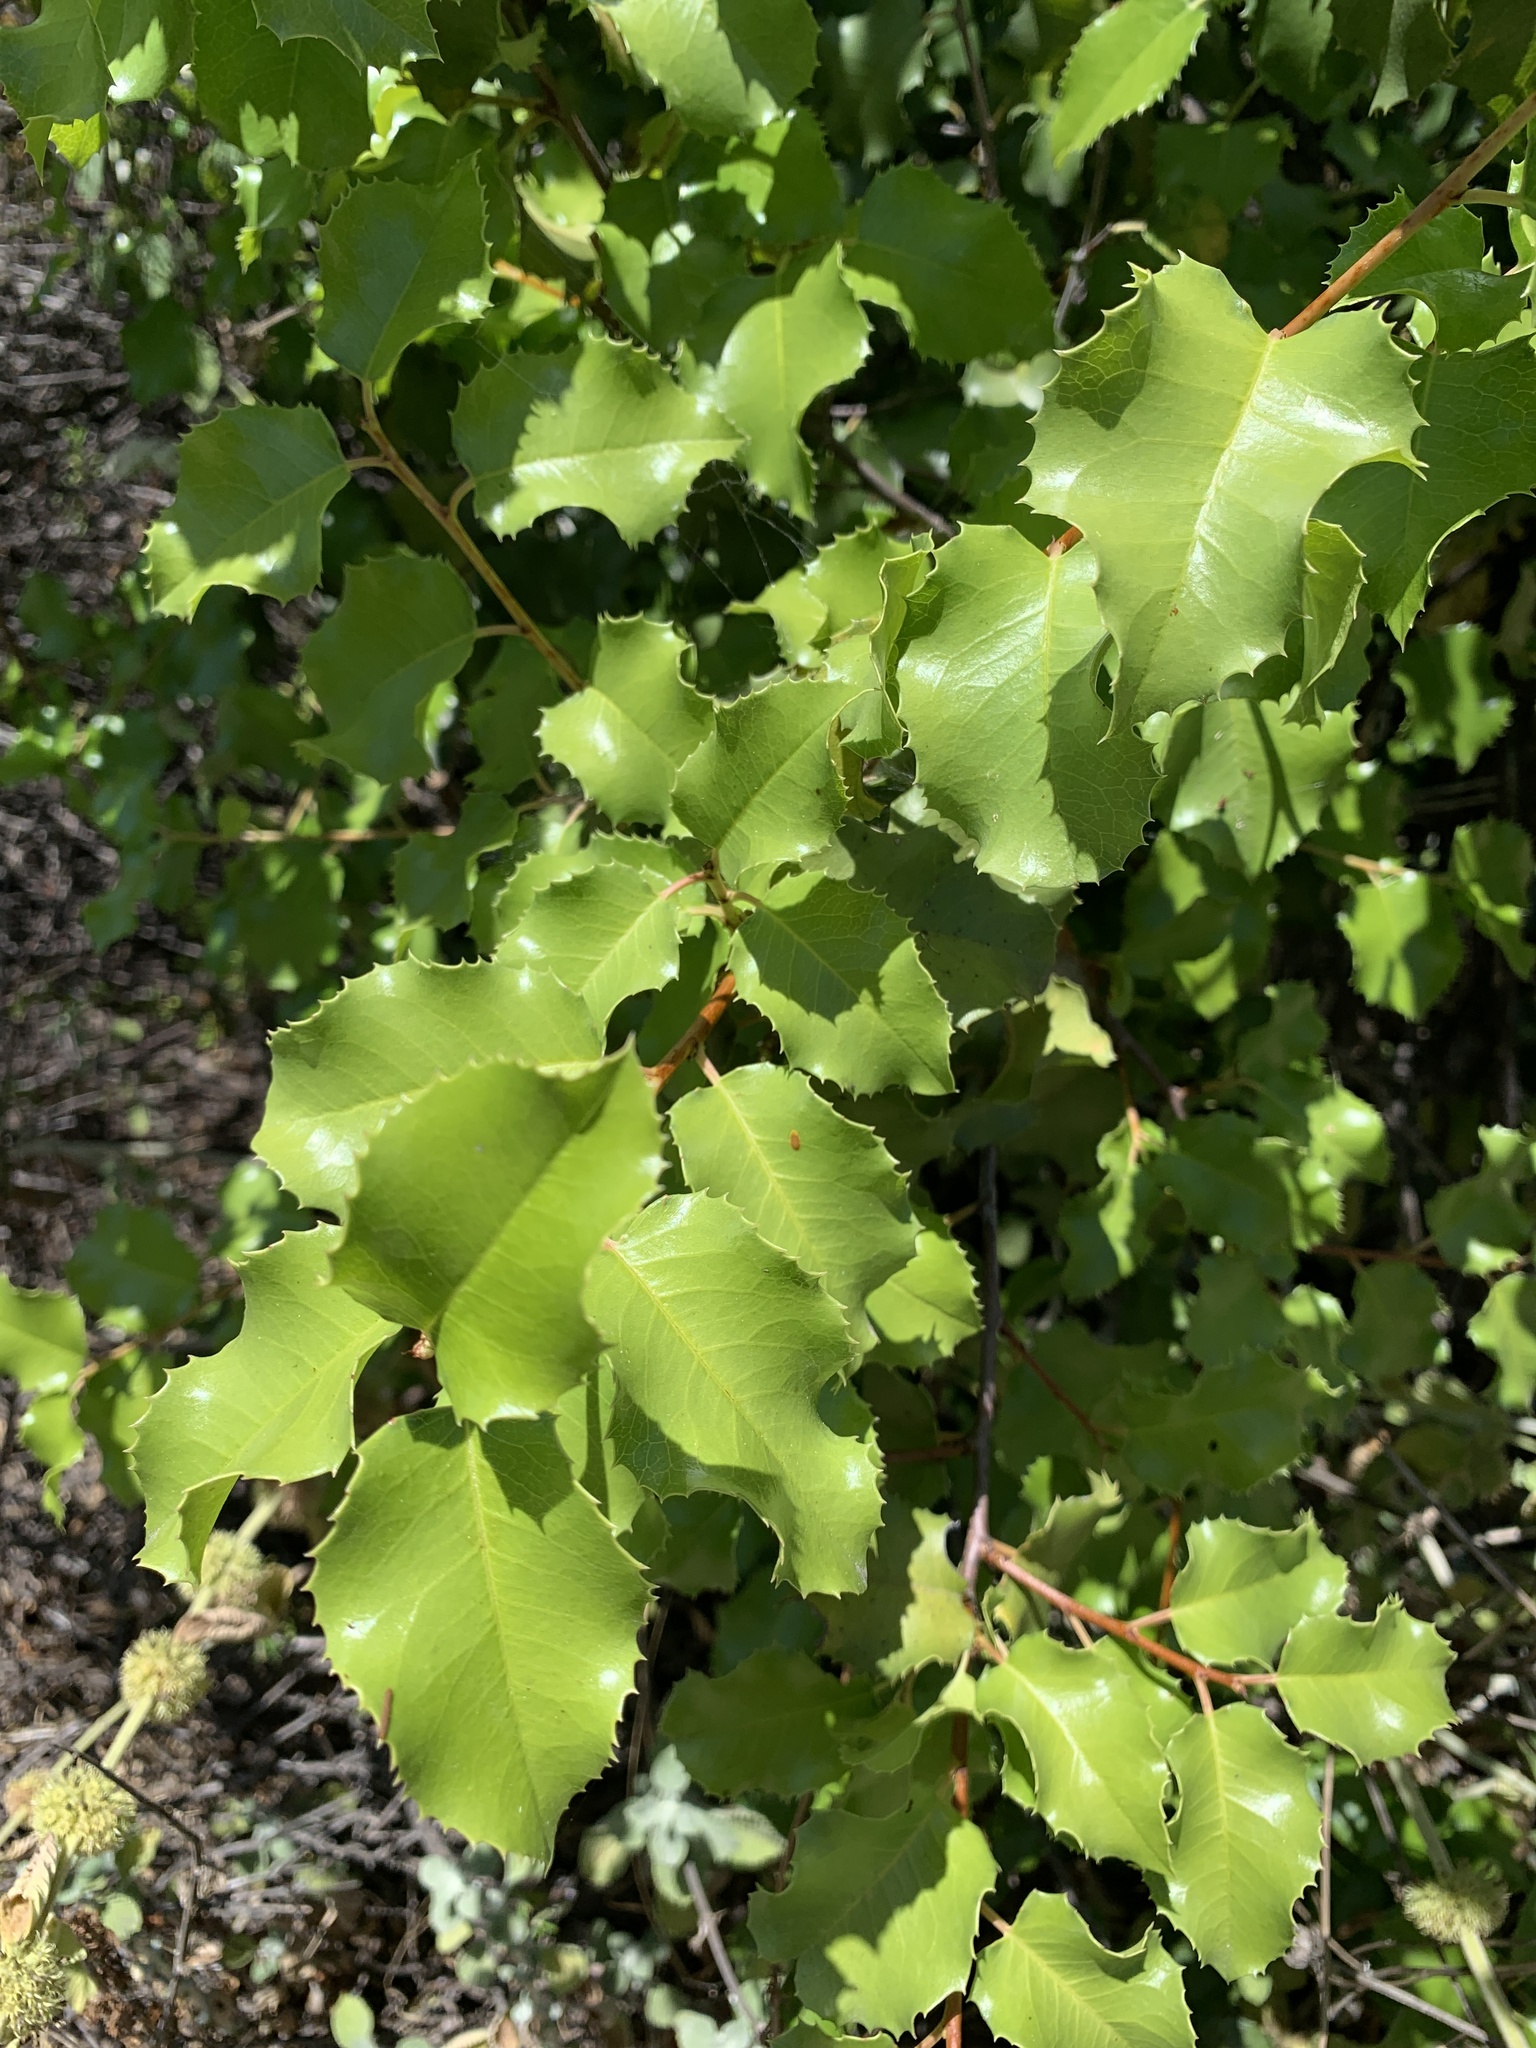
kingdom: Plantae
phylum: Tracheophyta
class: Magnoliopsida
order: Rosales
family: Rosaceae
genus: Prunus
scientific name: Prunus ilicifolia
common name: Hollyleaf cherry
